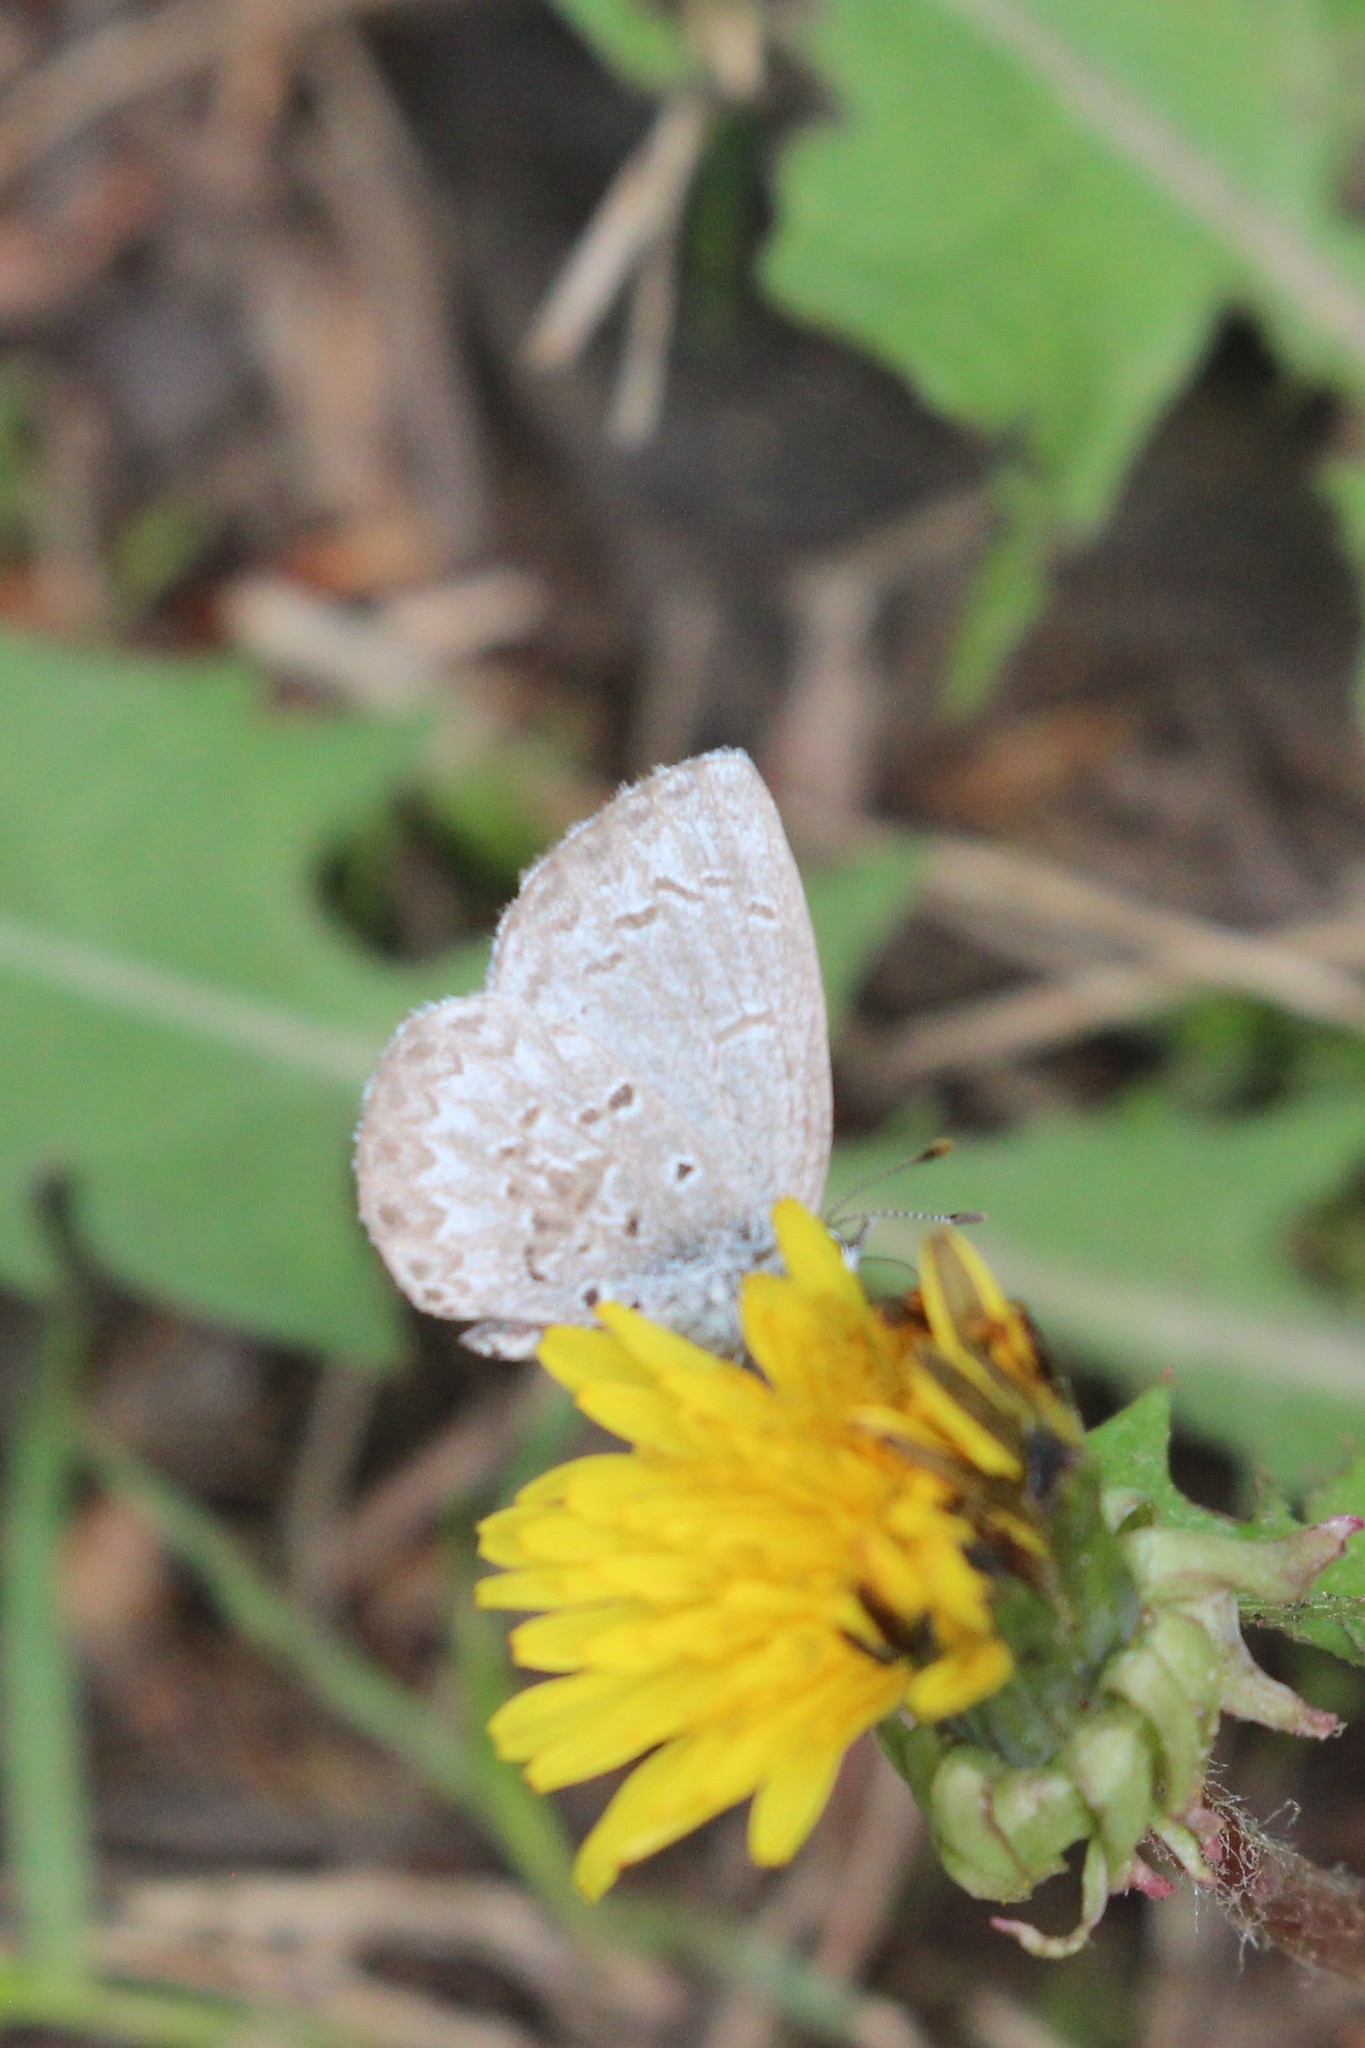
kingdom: Animalia
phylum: Arthropoda
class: Insecta
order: Lepidoptera
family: Lycaenidae
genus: Celastrina
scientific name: Celastrina lucia
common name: Lucia azure
